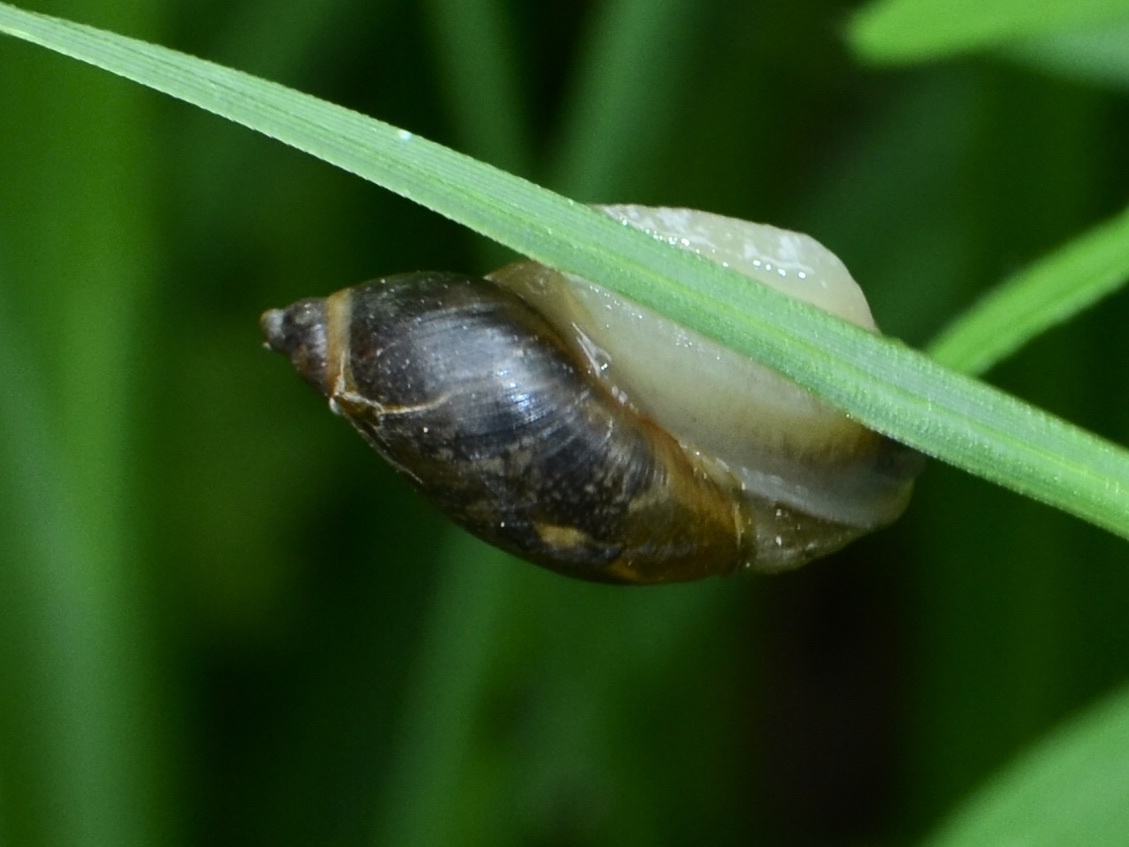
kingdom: Animalia
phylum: Mollusca
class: Gastropoda
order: Stylommatophora
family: Succineidae
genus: Succinea
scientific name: Succinea putris
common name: European ambersnail
